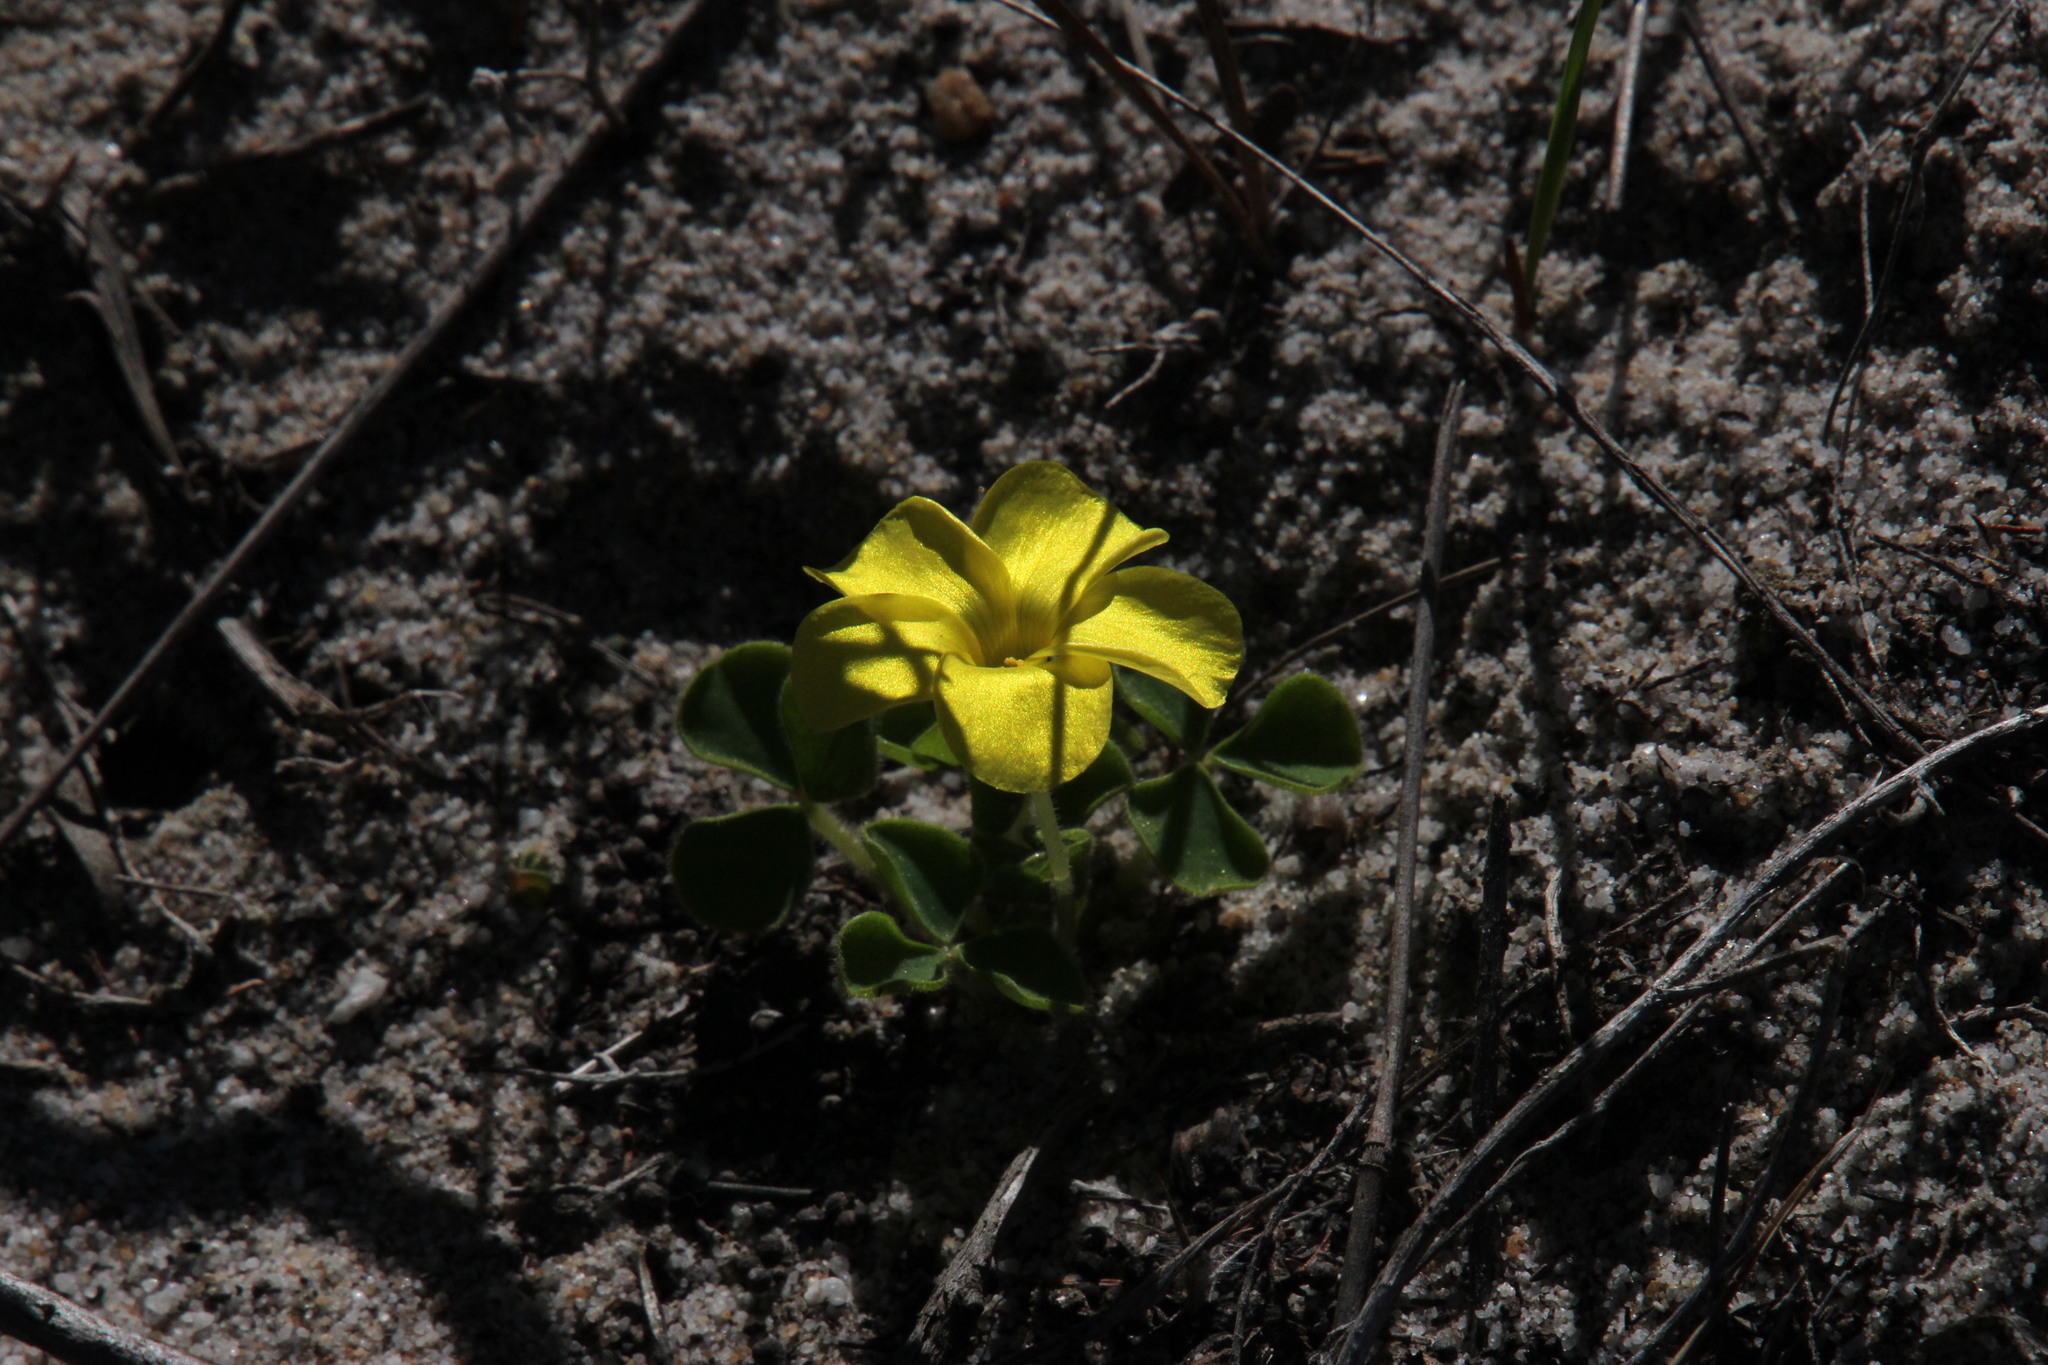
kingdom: Plantae
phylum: Tracheophyta
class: Magnoliopsida
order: Oxalidales
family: Oxalidaceae
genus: Oxalis
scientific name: Oxalis luteola
